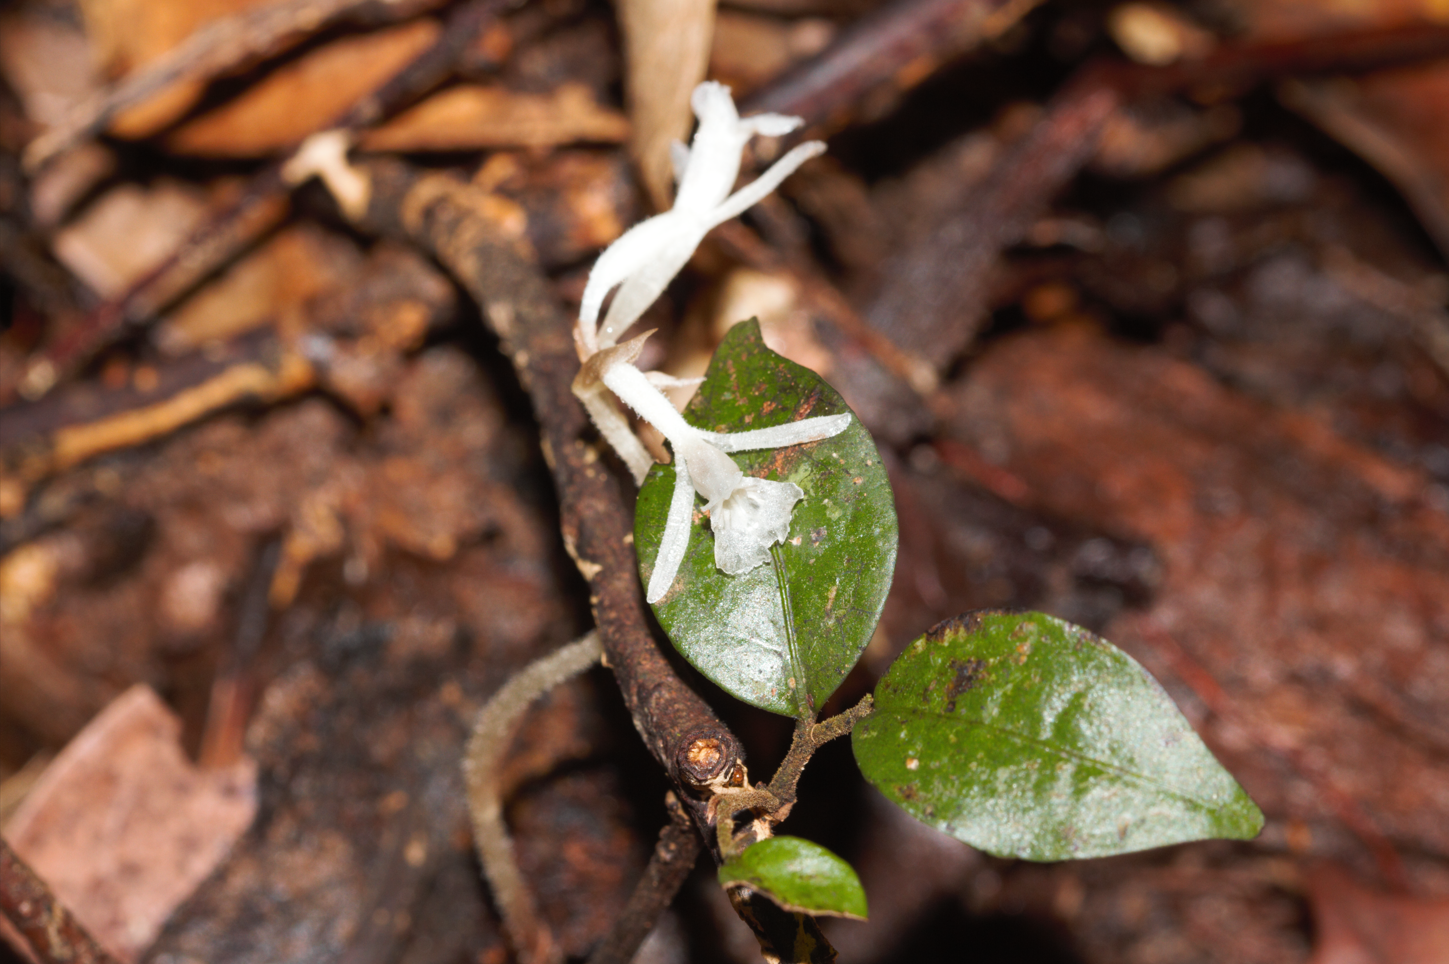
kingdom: Plantae
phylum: Tracheophyta
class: Liliopsida
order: Asparagales
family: Orchidaceae
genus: Degranvillea
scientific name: Degranvillea dermaptera
